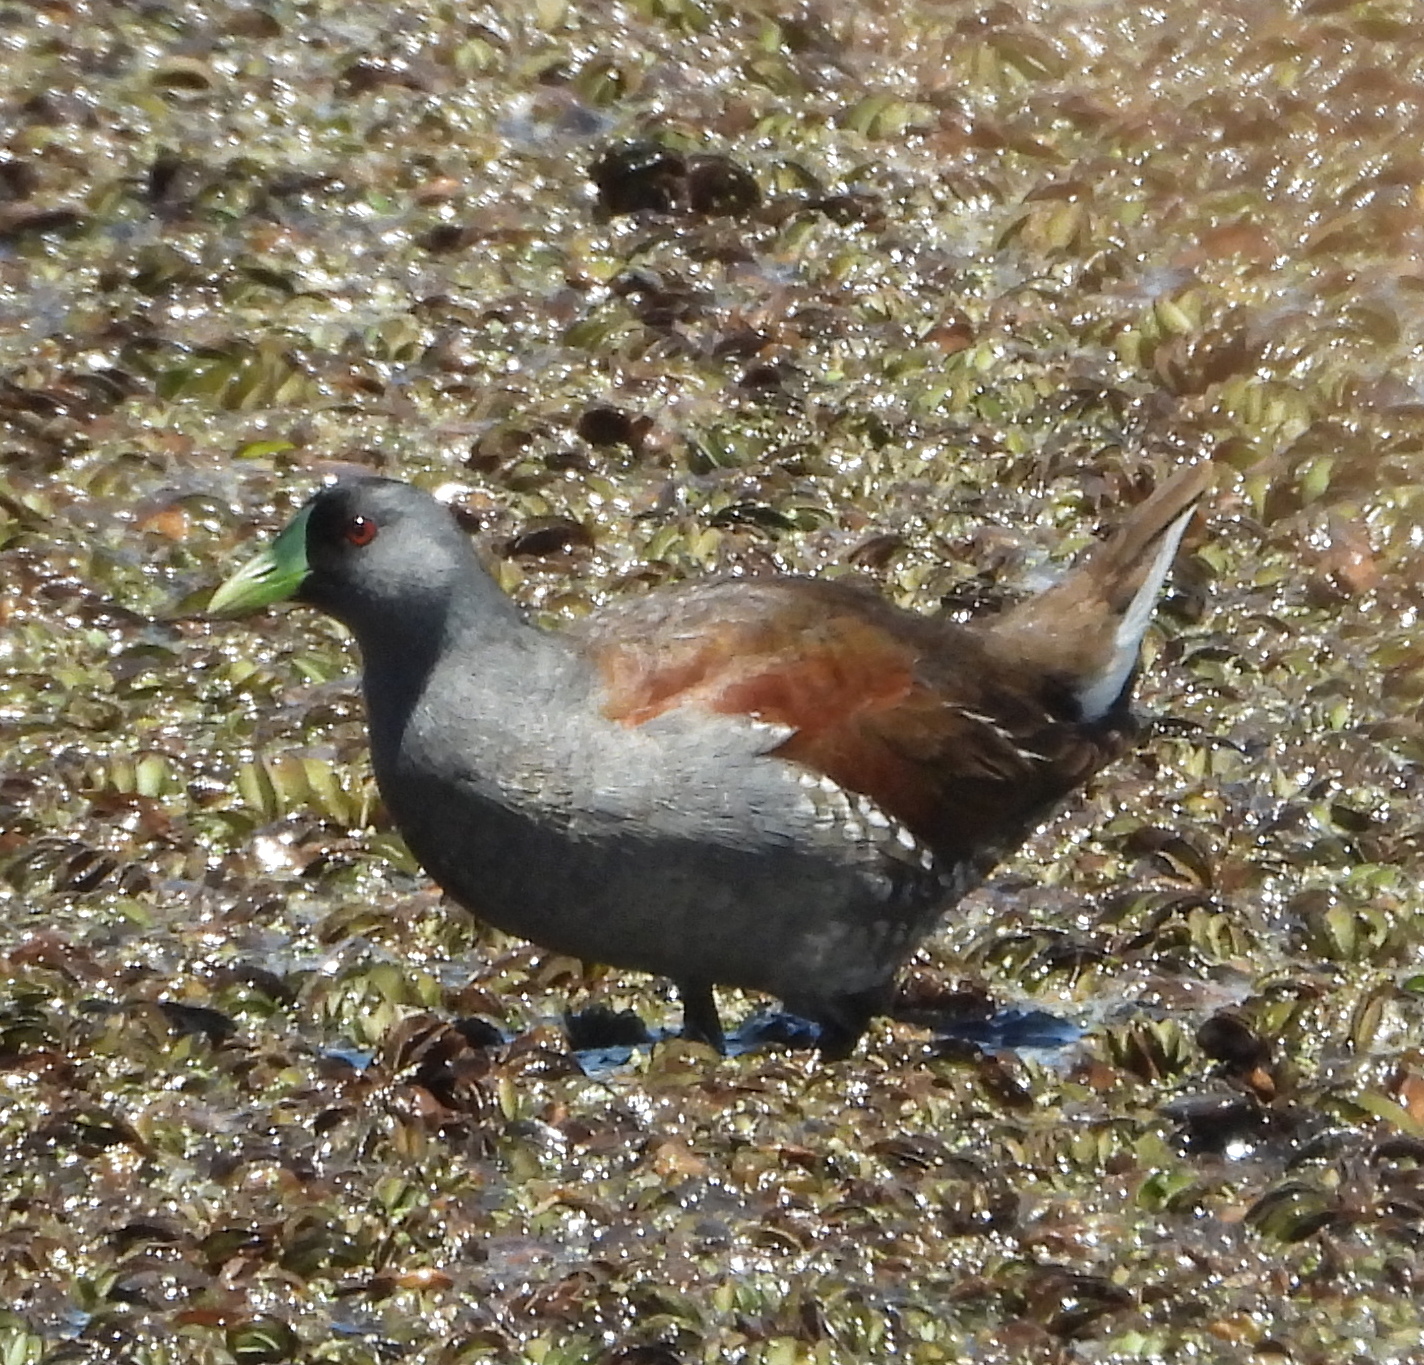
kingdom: Animalia
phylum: Chordata
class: Aves
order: Gruiformes
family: Rallidae
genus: Gallinula
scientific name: Gallinula melanops
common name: Spot-flanked gallinule
